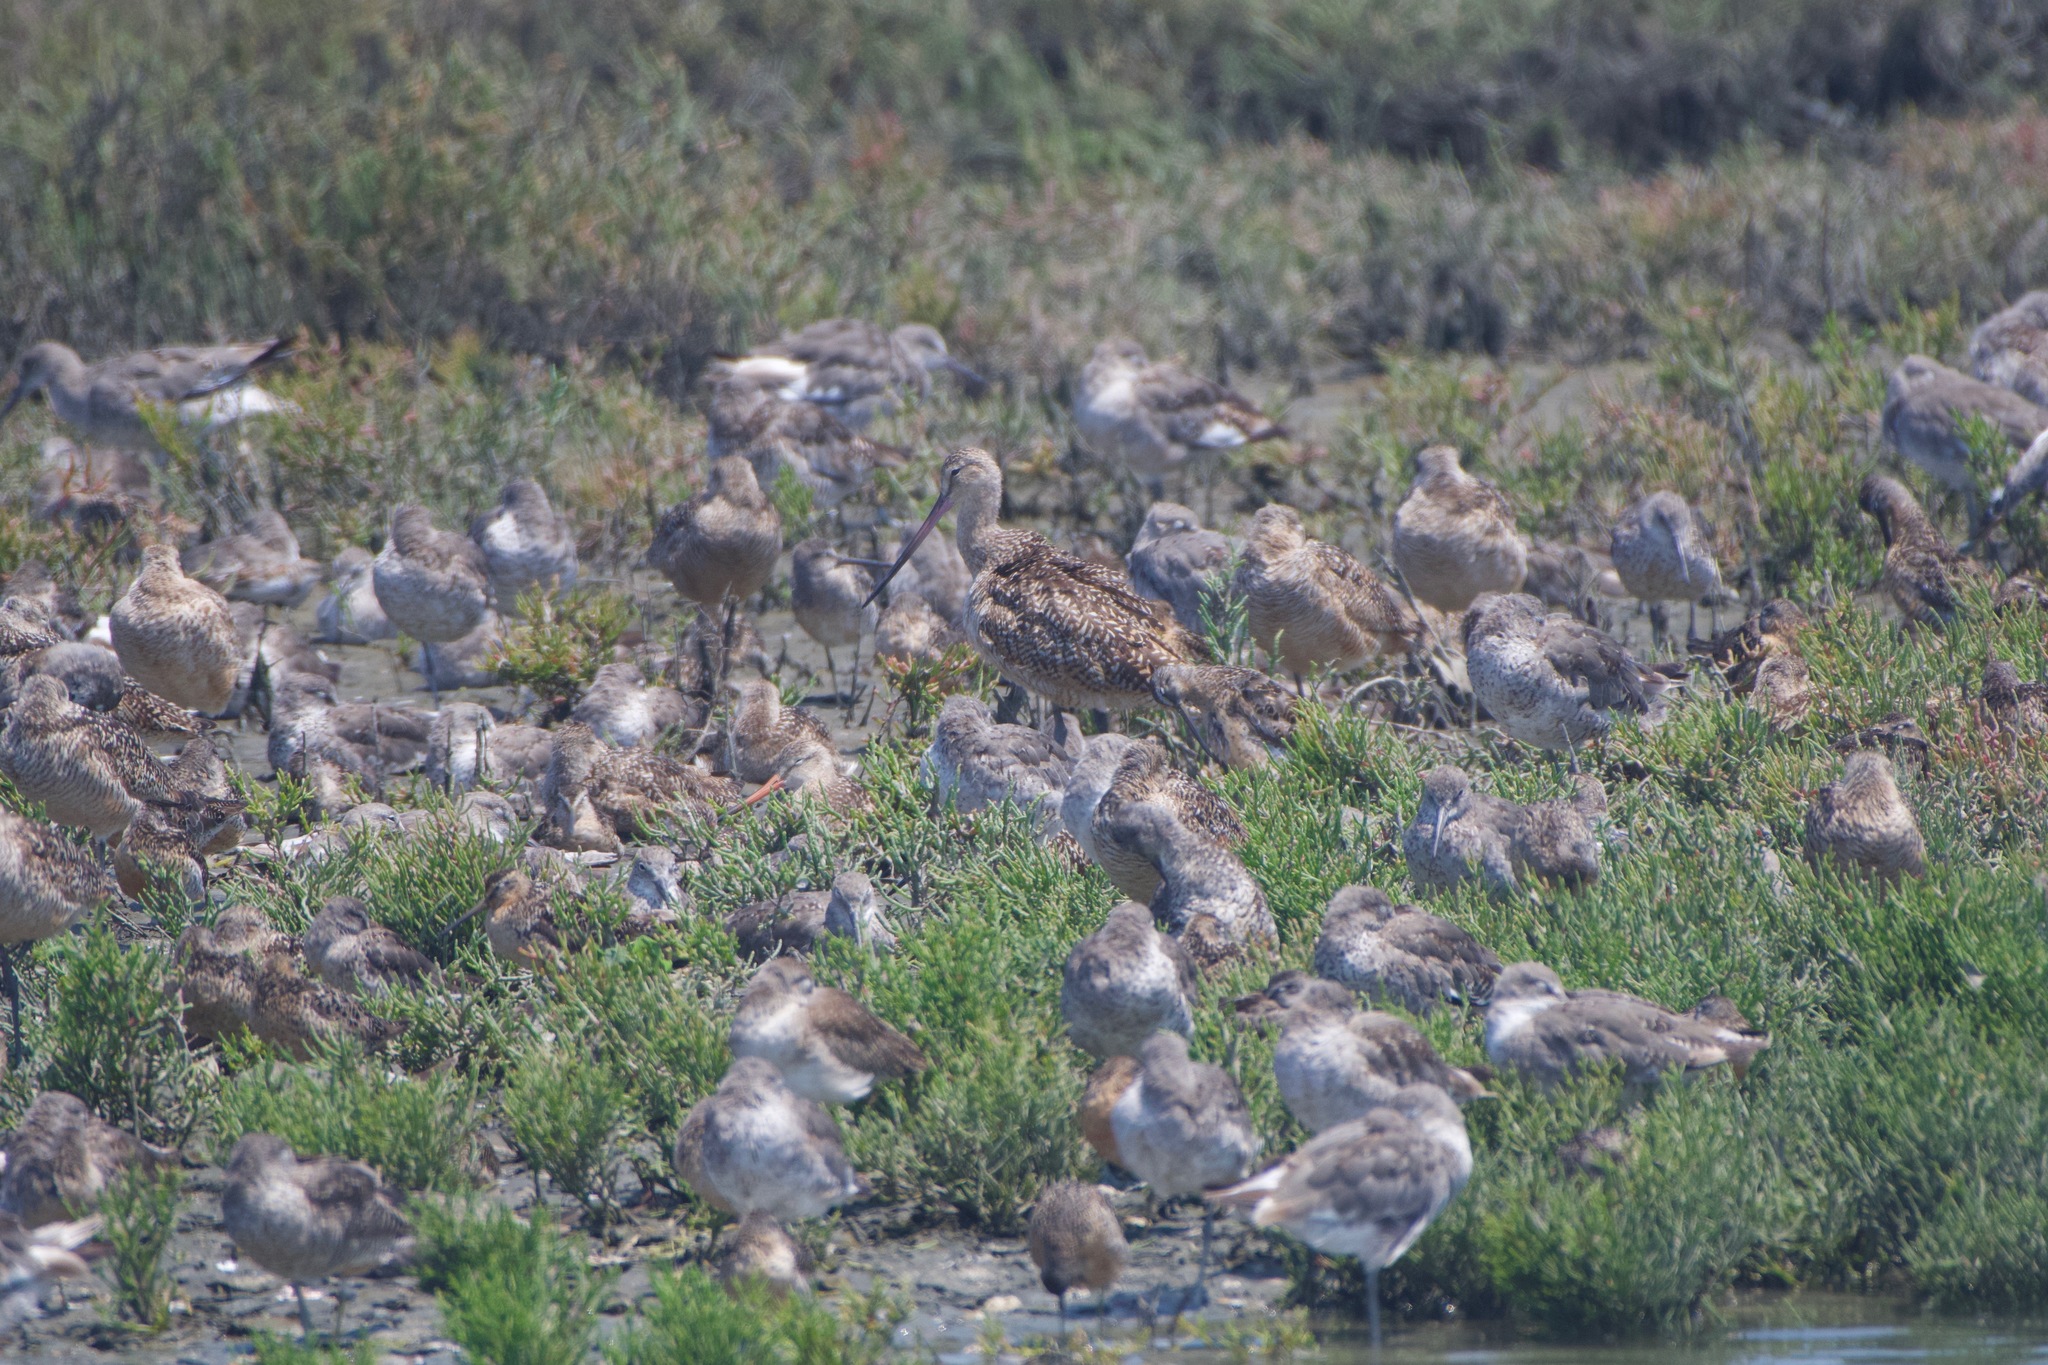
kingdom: Animalia
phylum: Chordata
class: Aves
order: Charadriiformes
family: Scolopacidae
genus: Limosa
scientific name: Limosa fedoa
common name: Marbled godwit
